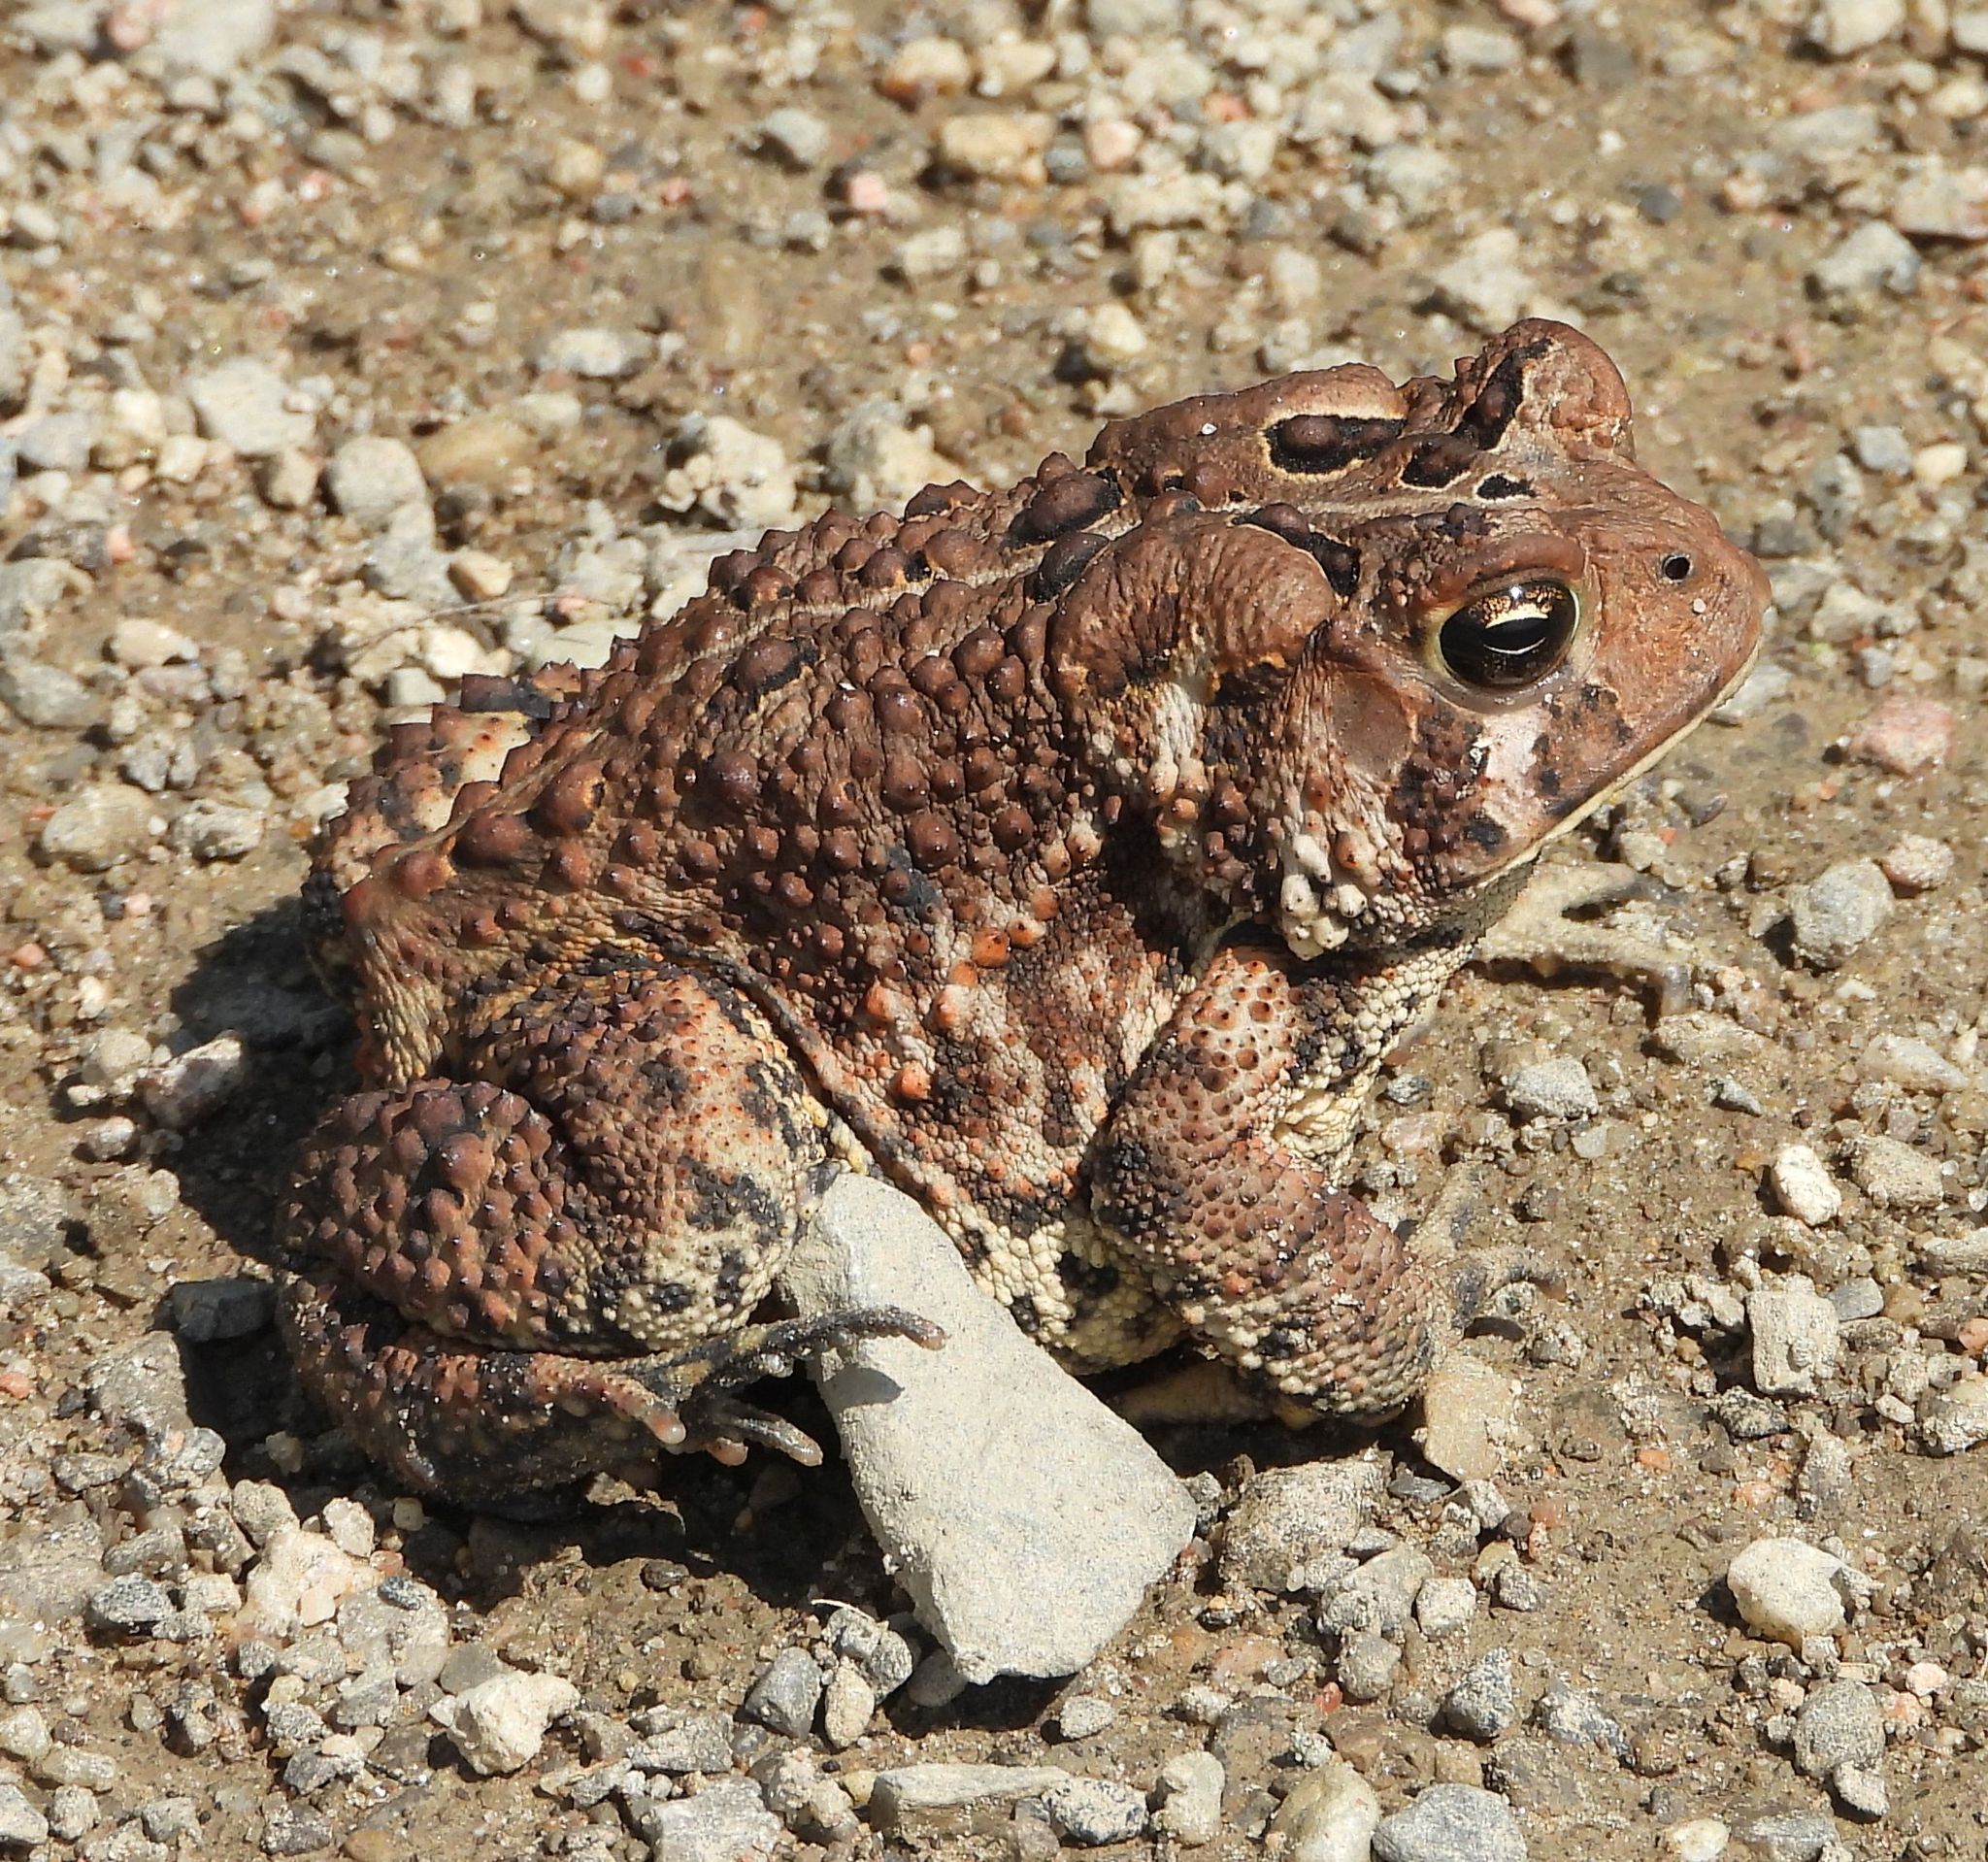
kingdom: Animalia
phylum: Chordata
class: Amphibia
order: Anura
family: Bufonidae
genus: Anaxyrus
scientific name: Anaxyrus americanus
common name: American toad
